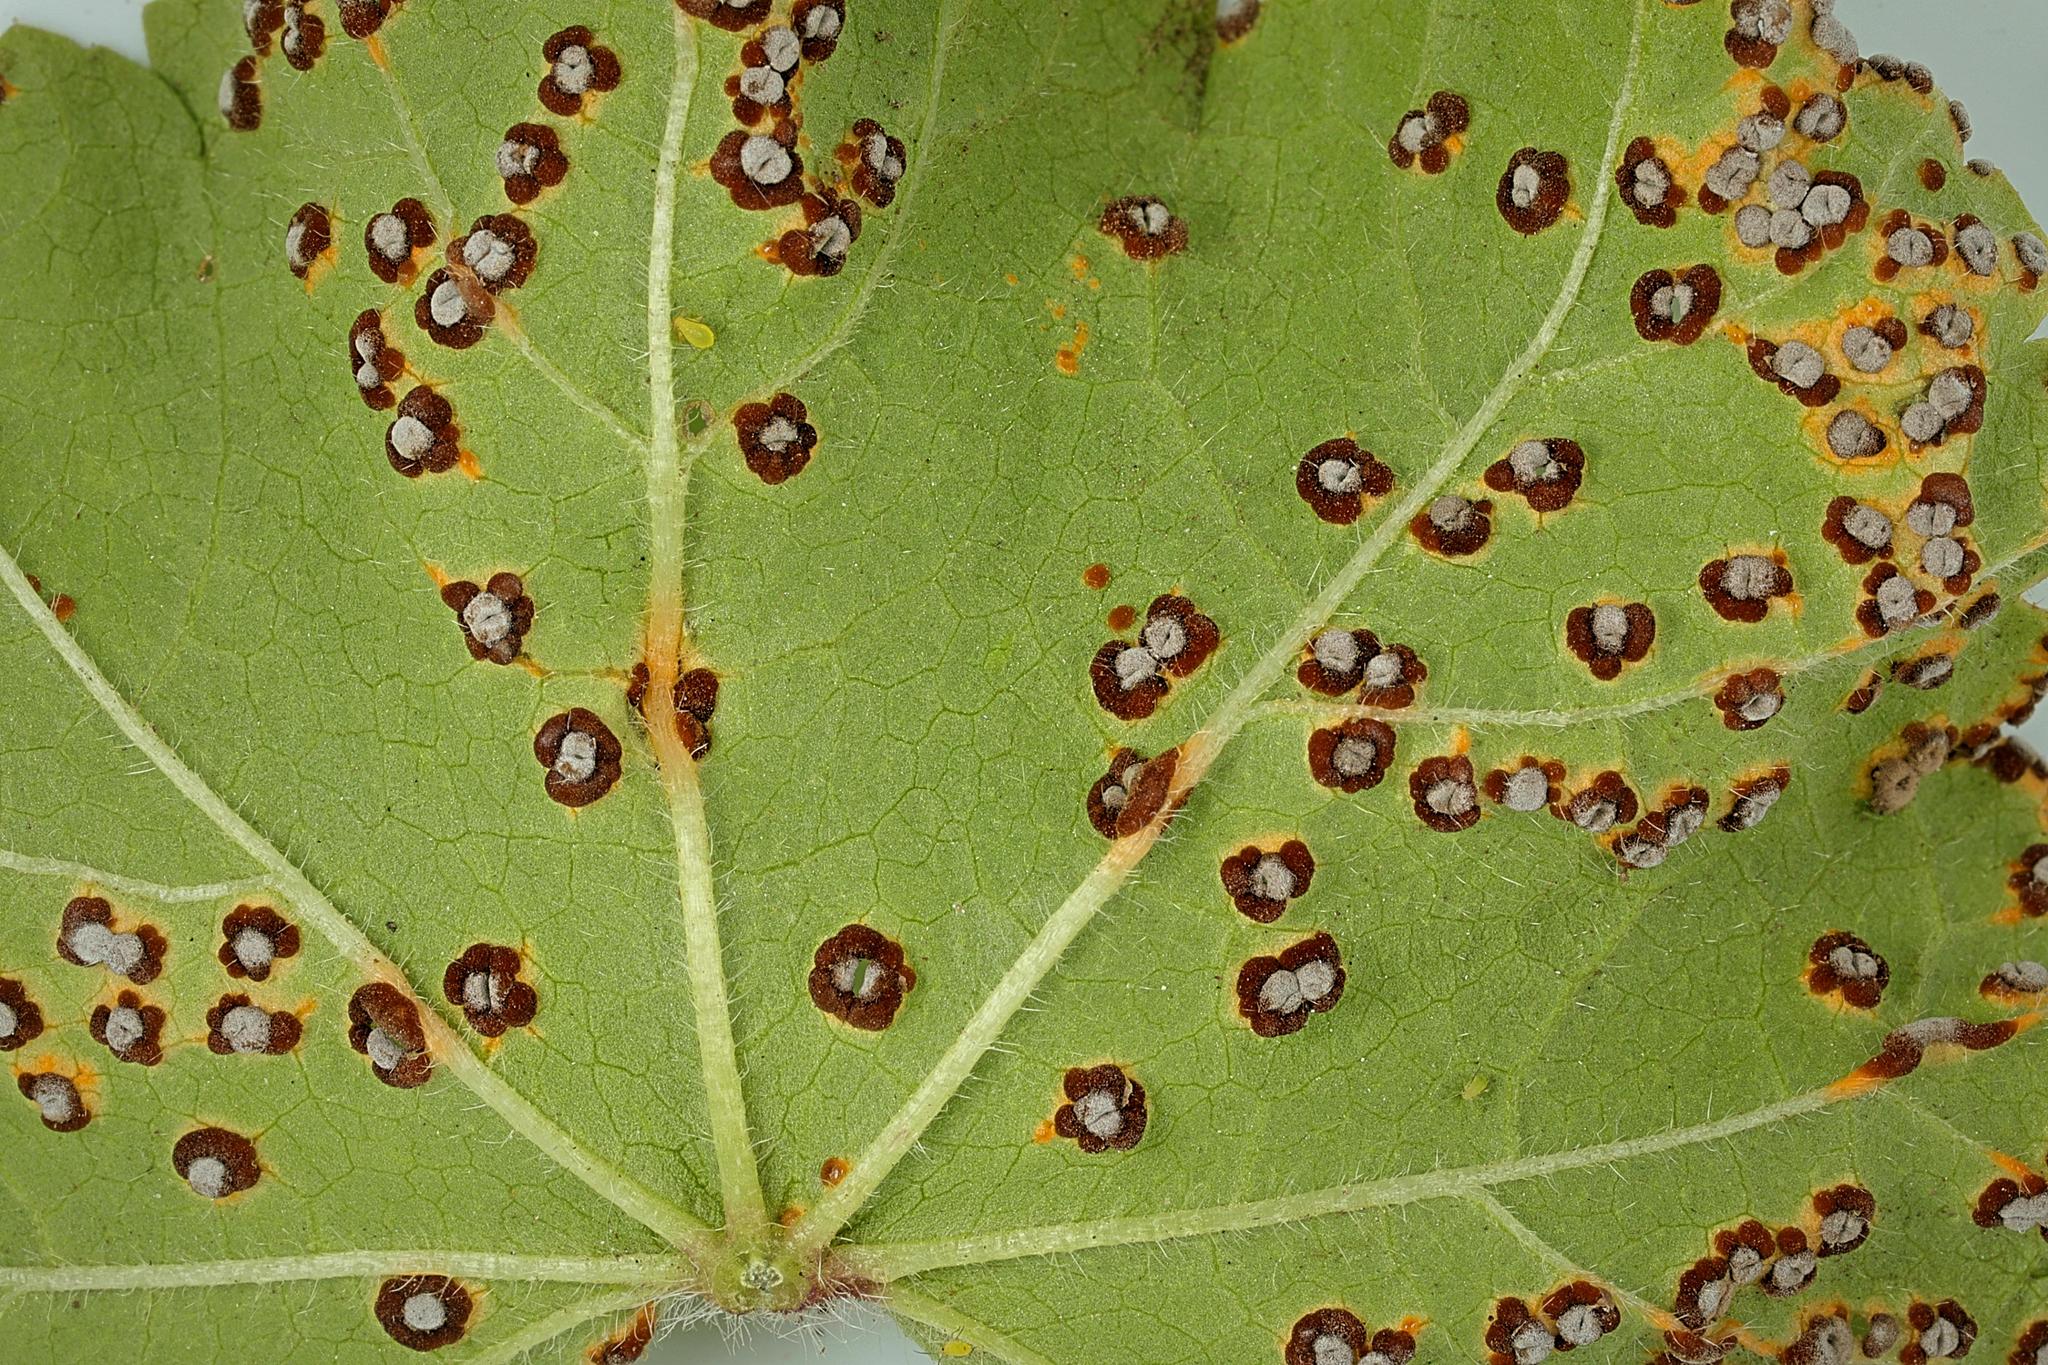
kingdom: Fungi
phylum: Basidiomycota
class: Pucciniomycetes
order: Pucciniales
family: Pucciniaceae
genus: Puccinia
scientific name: Puccinia malvacearum
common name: Hollyhock rust
